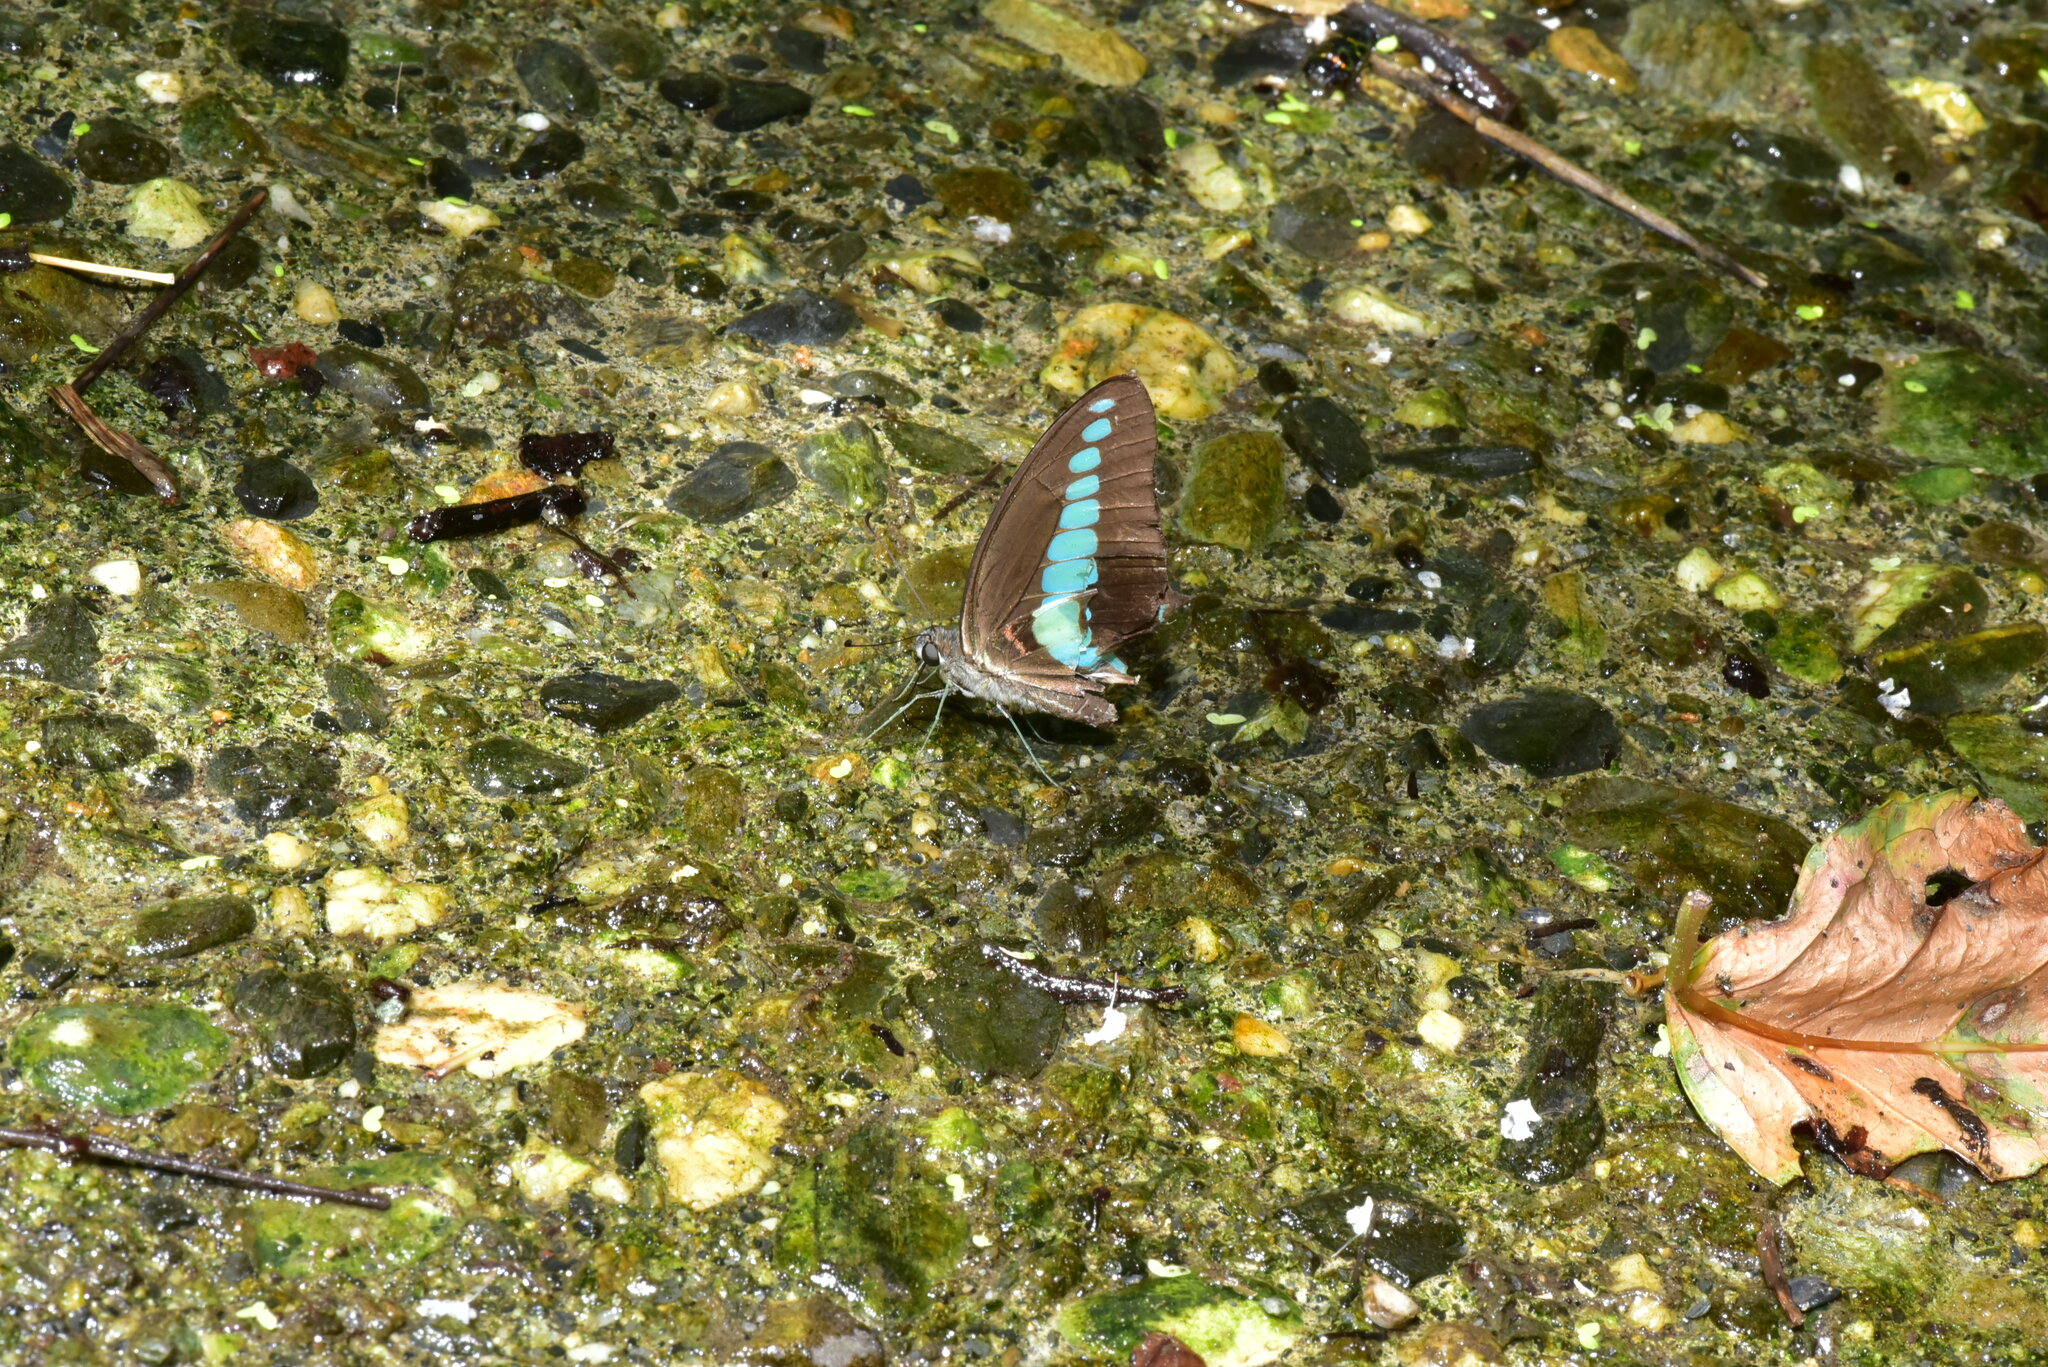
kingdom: Fungi
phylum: Ascomycota
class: Sordariomycetes
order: Microascales
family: Microascaceae
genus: Graphium
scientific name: Graphium sarpedon
